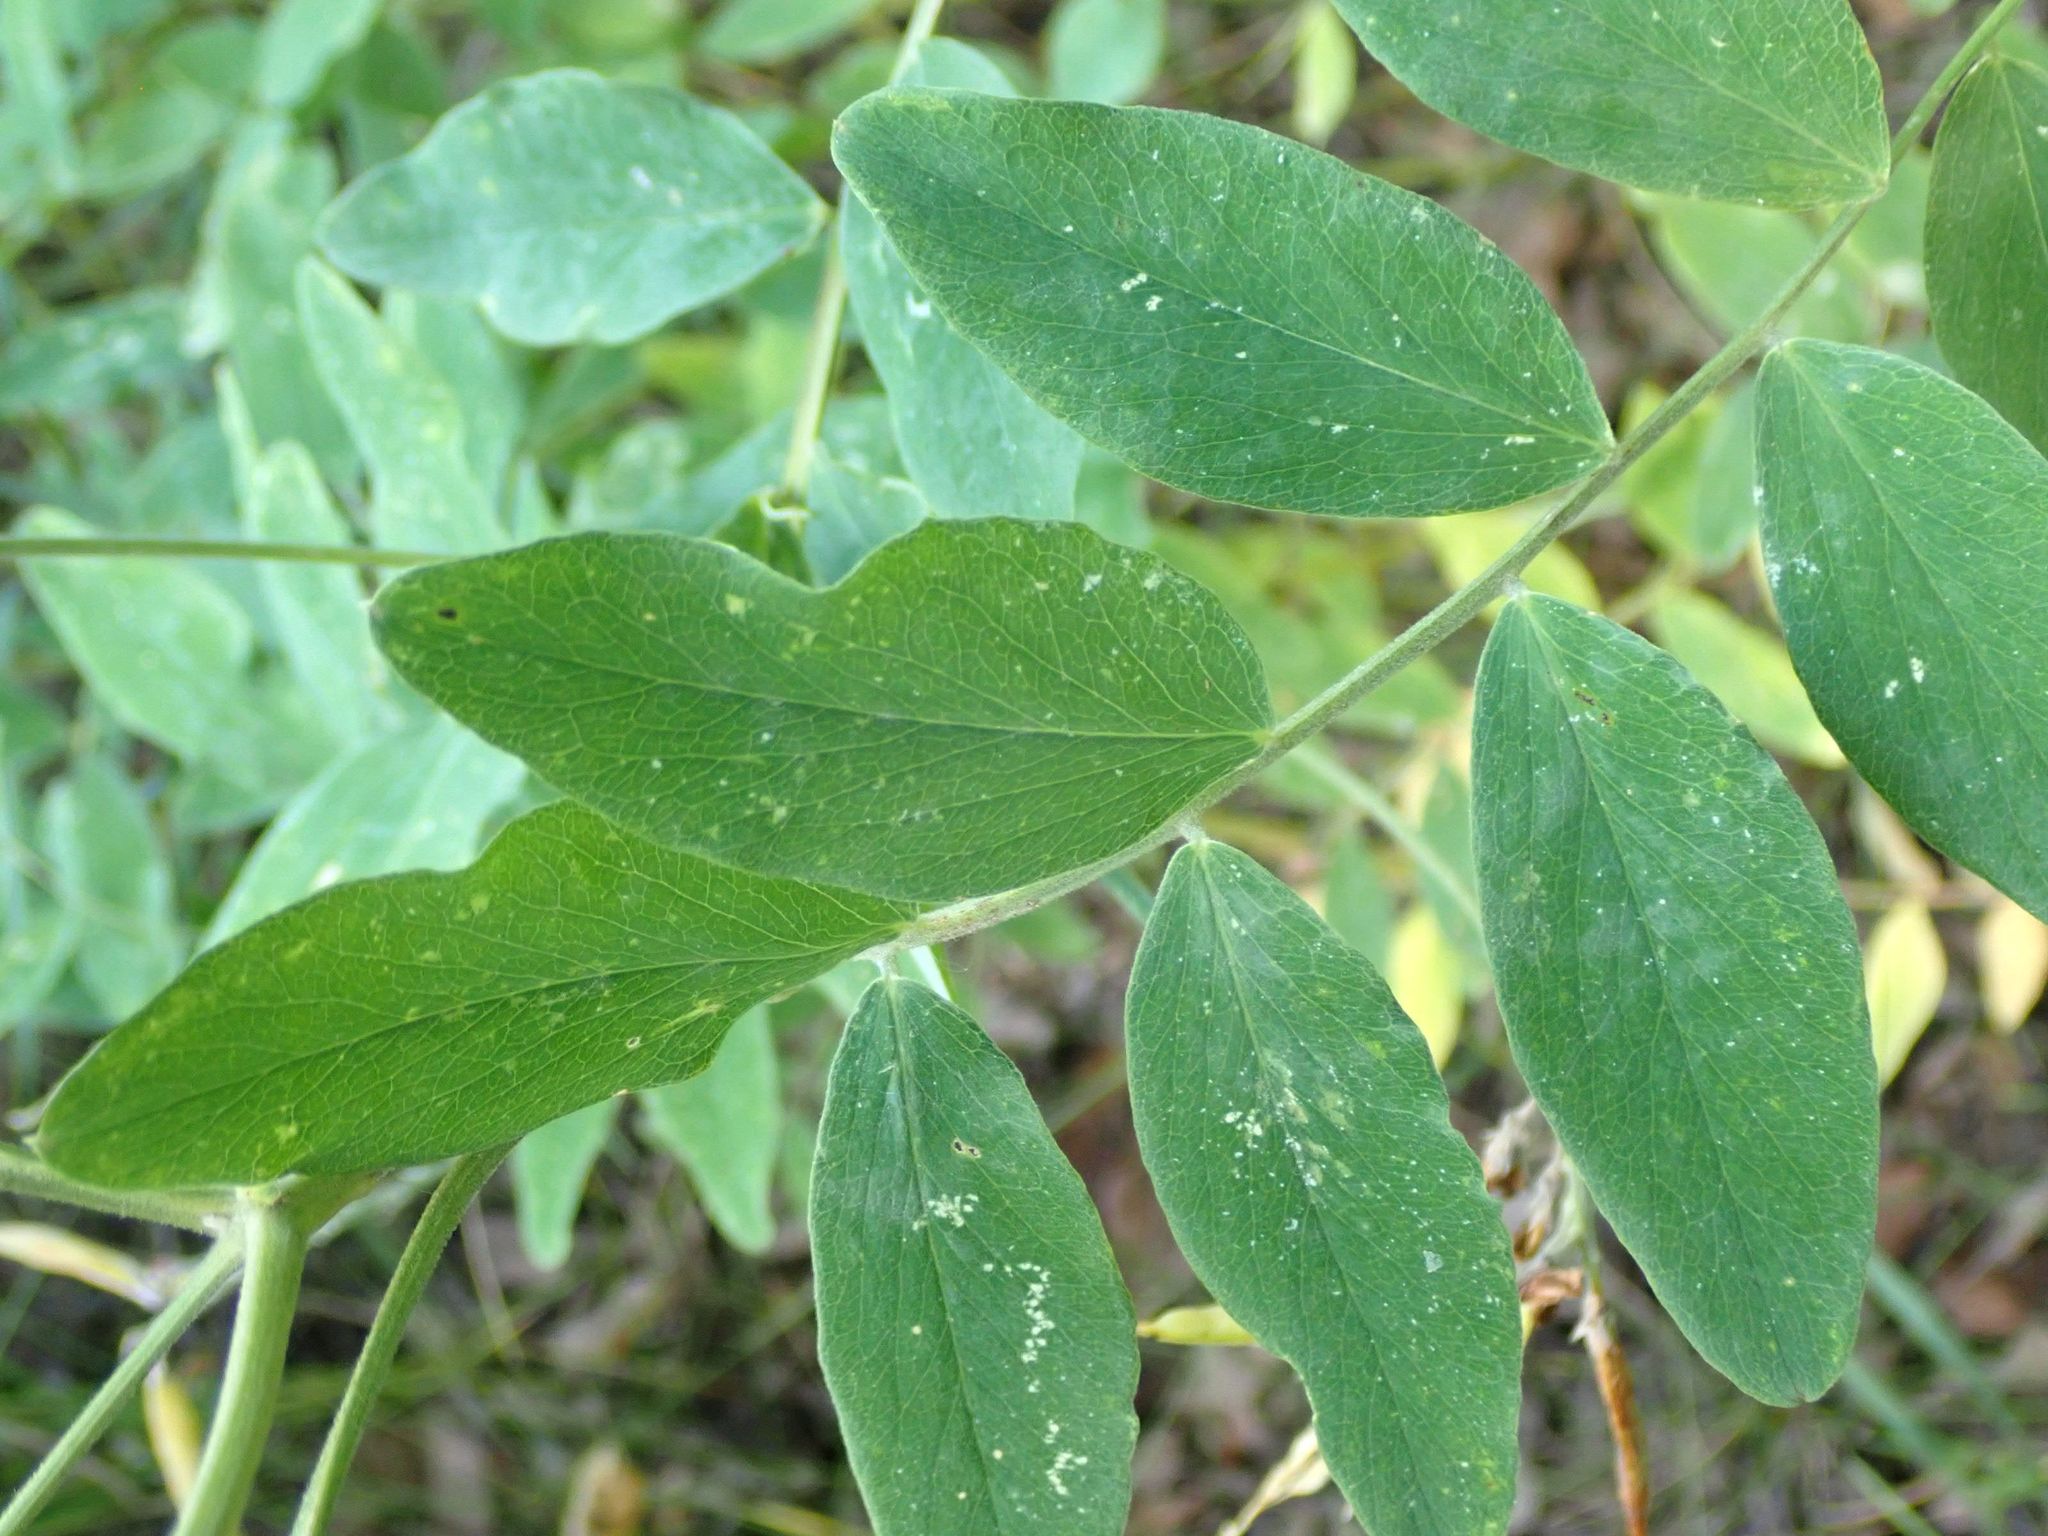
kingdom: Plantae
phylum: Tracheophyta
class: Magnoliopsida
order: Fabales
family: Fabaceae
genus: Lathyrus
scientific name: Lathyrus venosus
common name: Forest-pea
